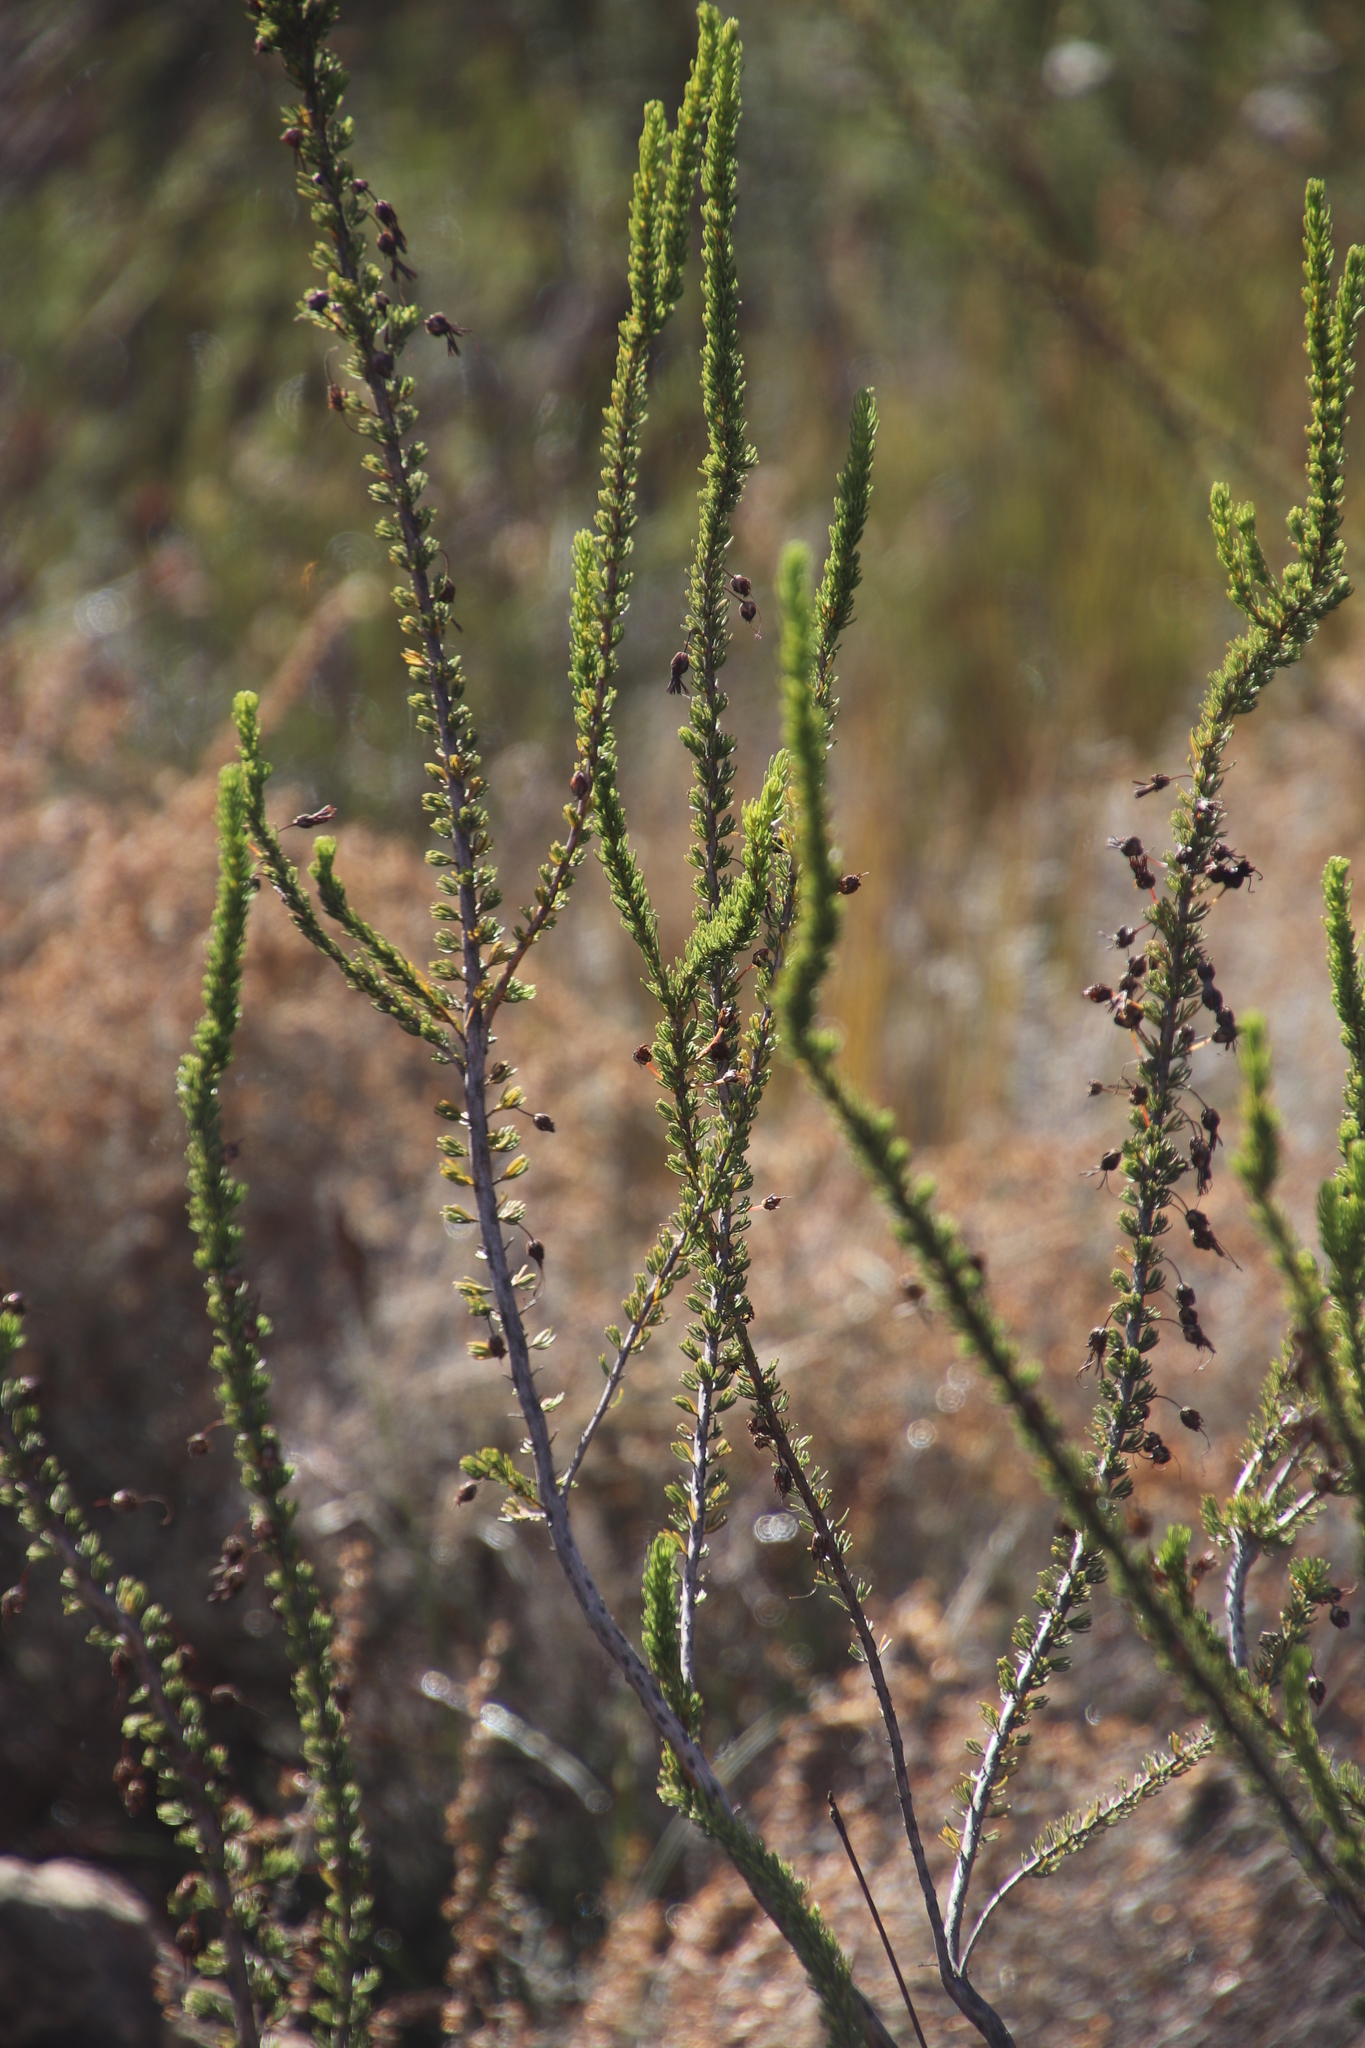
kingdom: Plantae
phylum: Tracheophyta
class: Magnoliopsida
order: Ericales
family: Ericaceae
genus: Erica
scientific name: Erica plukenetii
